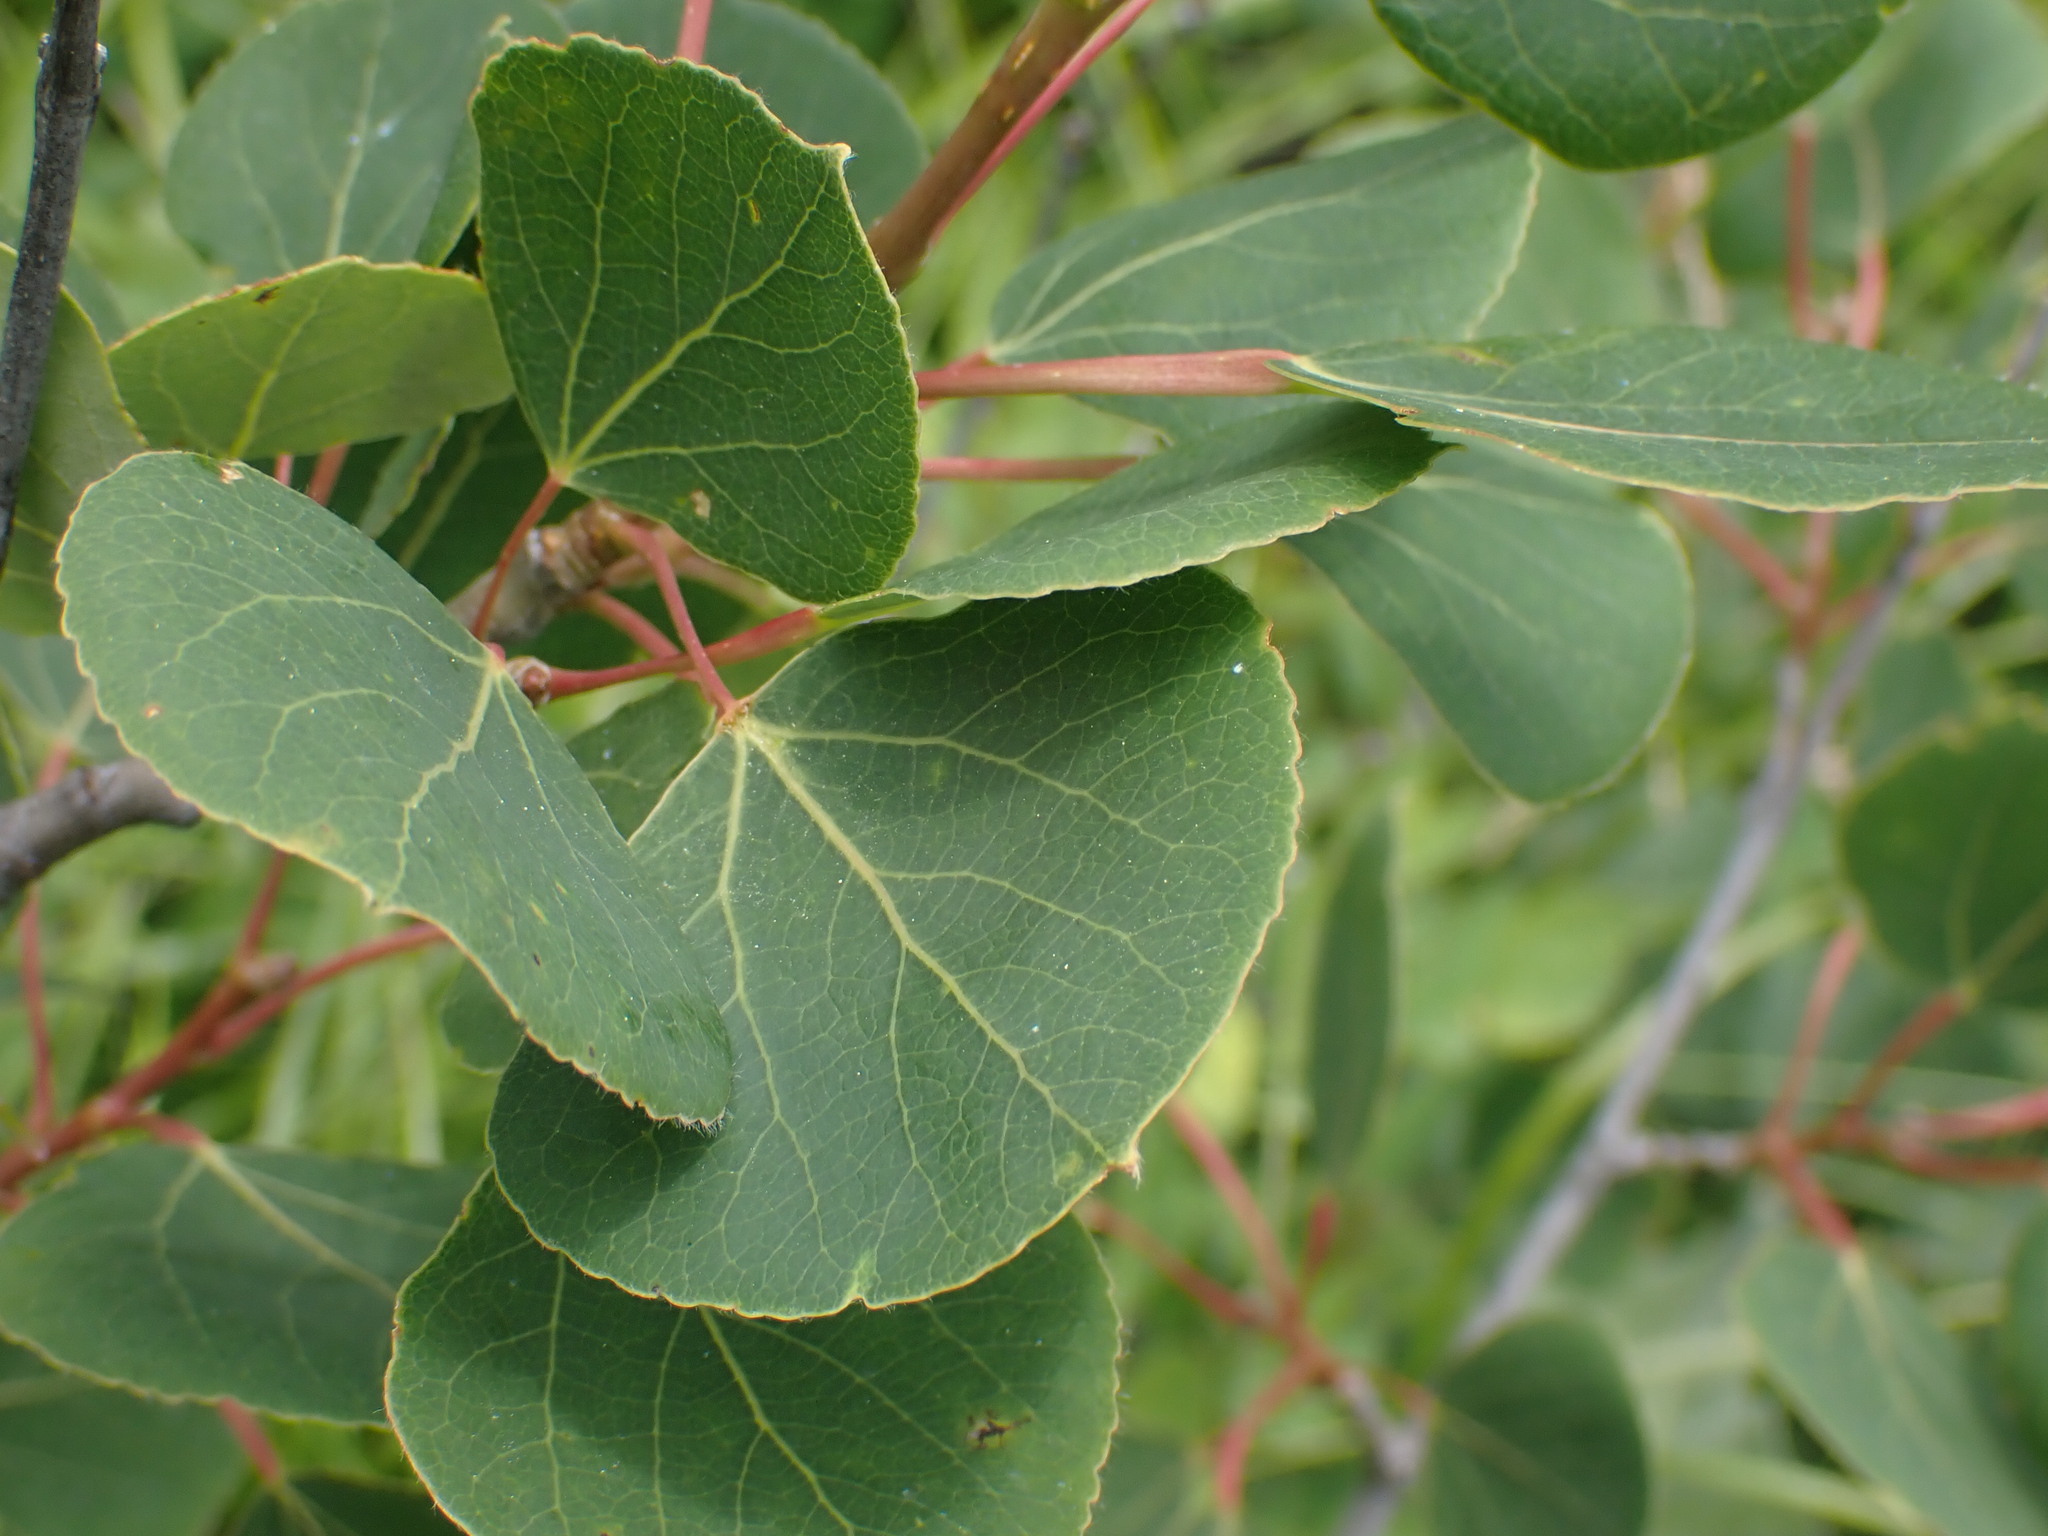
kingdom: Plantae
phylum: Tracheophyta
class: Magnoliopsida
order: Malpighiales
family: Salicaceae
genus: Populus
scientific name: Populus tremuloides
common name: Quaking aspen
